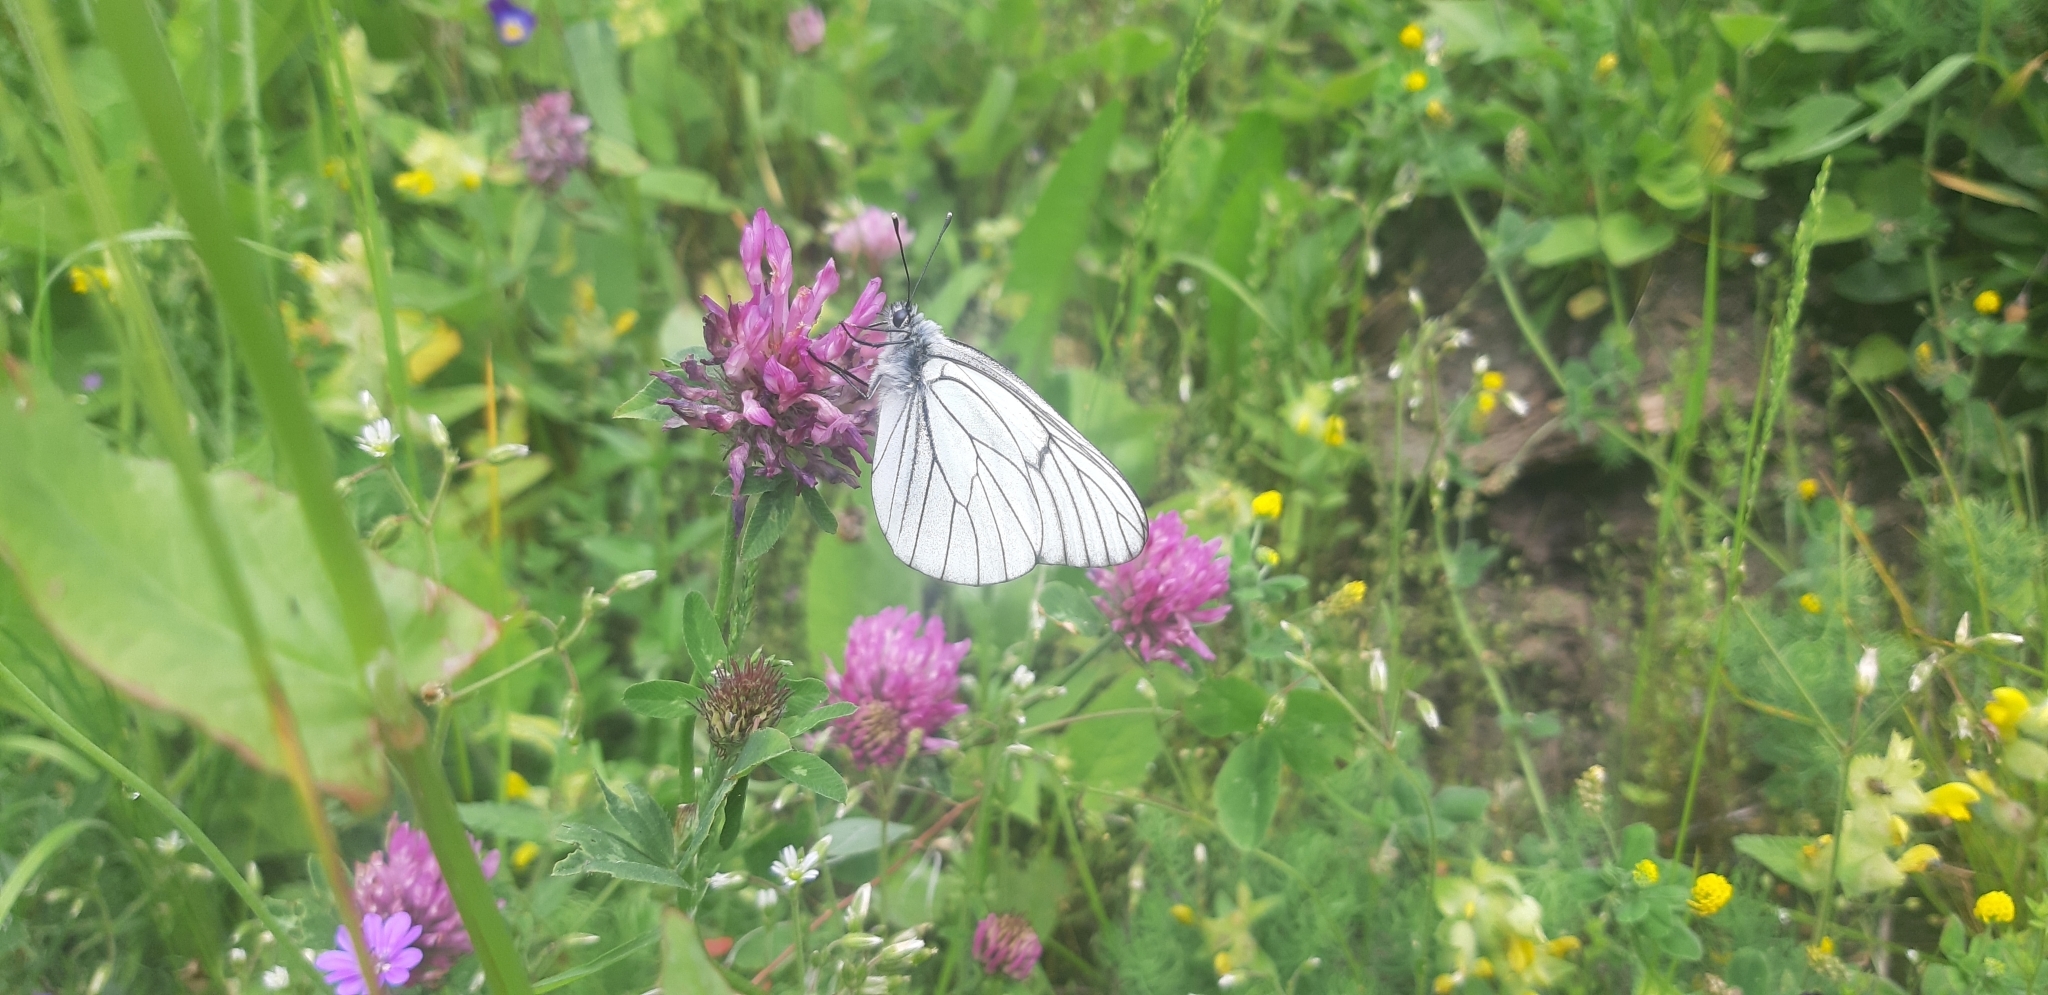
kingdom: Animalia
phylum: Arthropoda
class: Insecta
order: Lepidoptera
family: Pieridae
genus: Aporia
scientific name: Aporia crataegi
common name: Black-veined white
